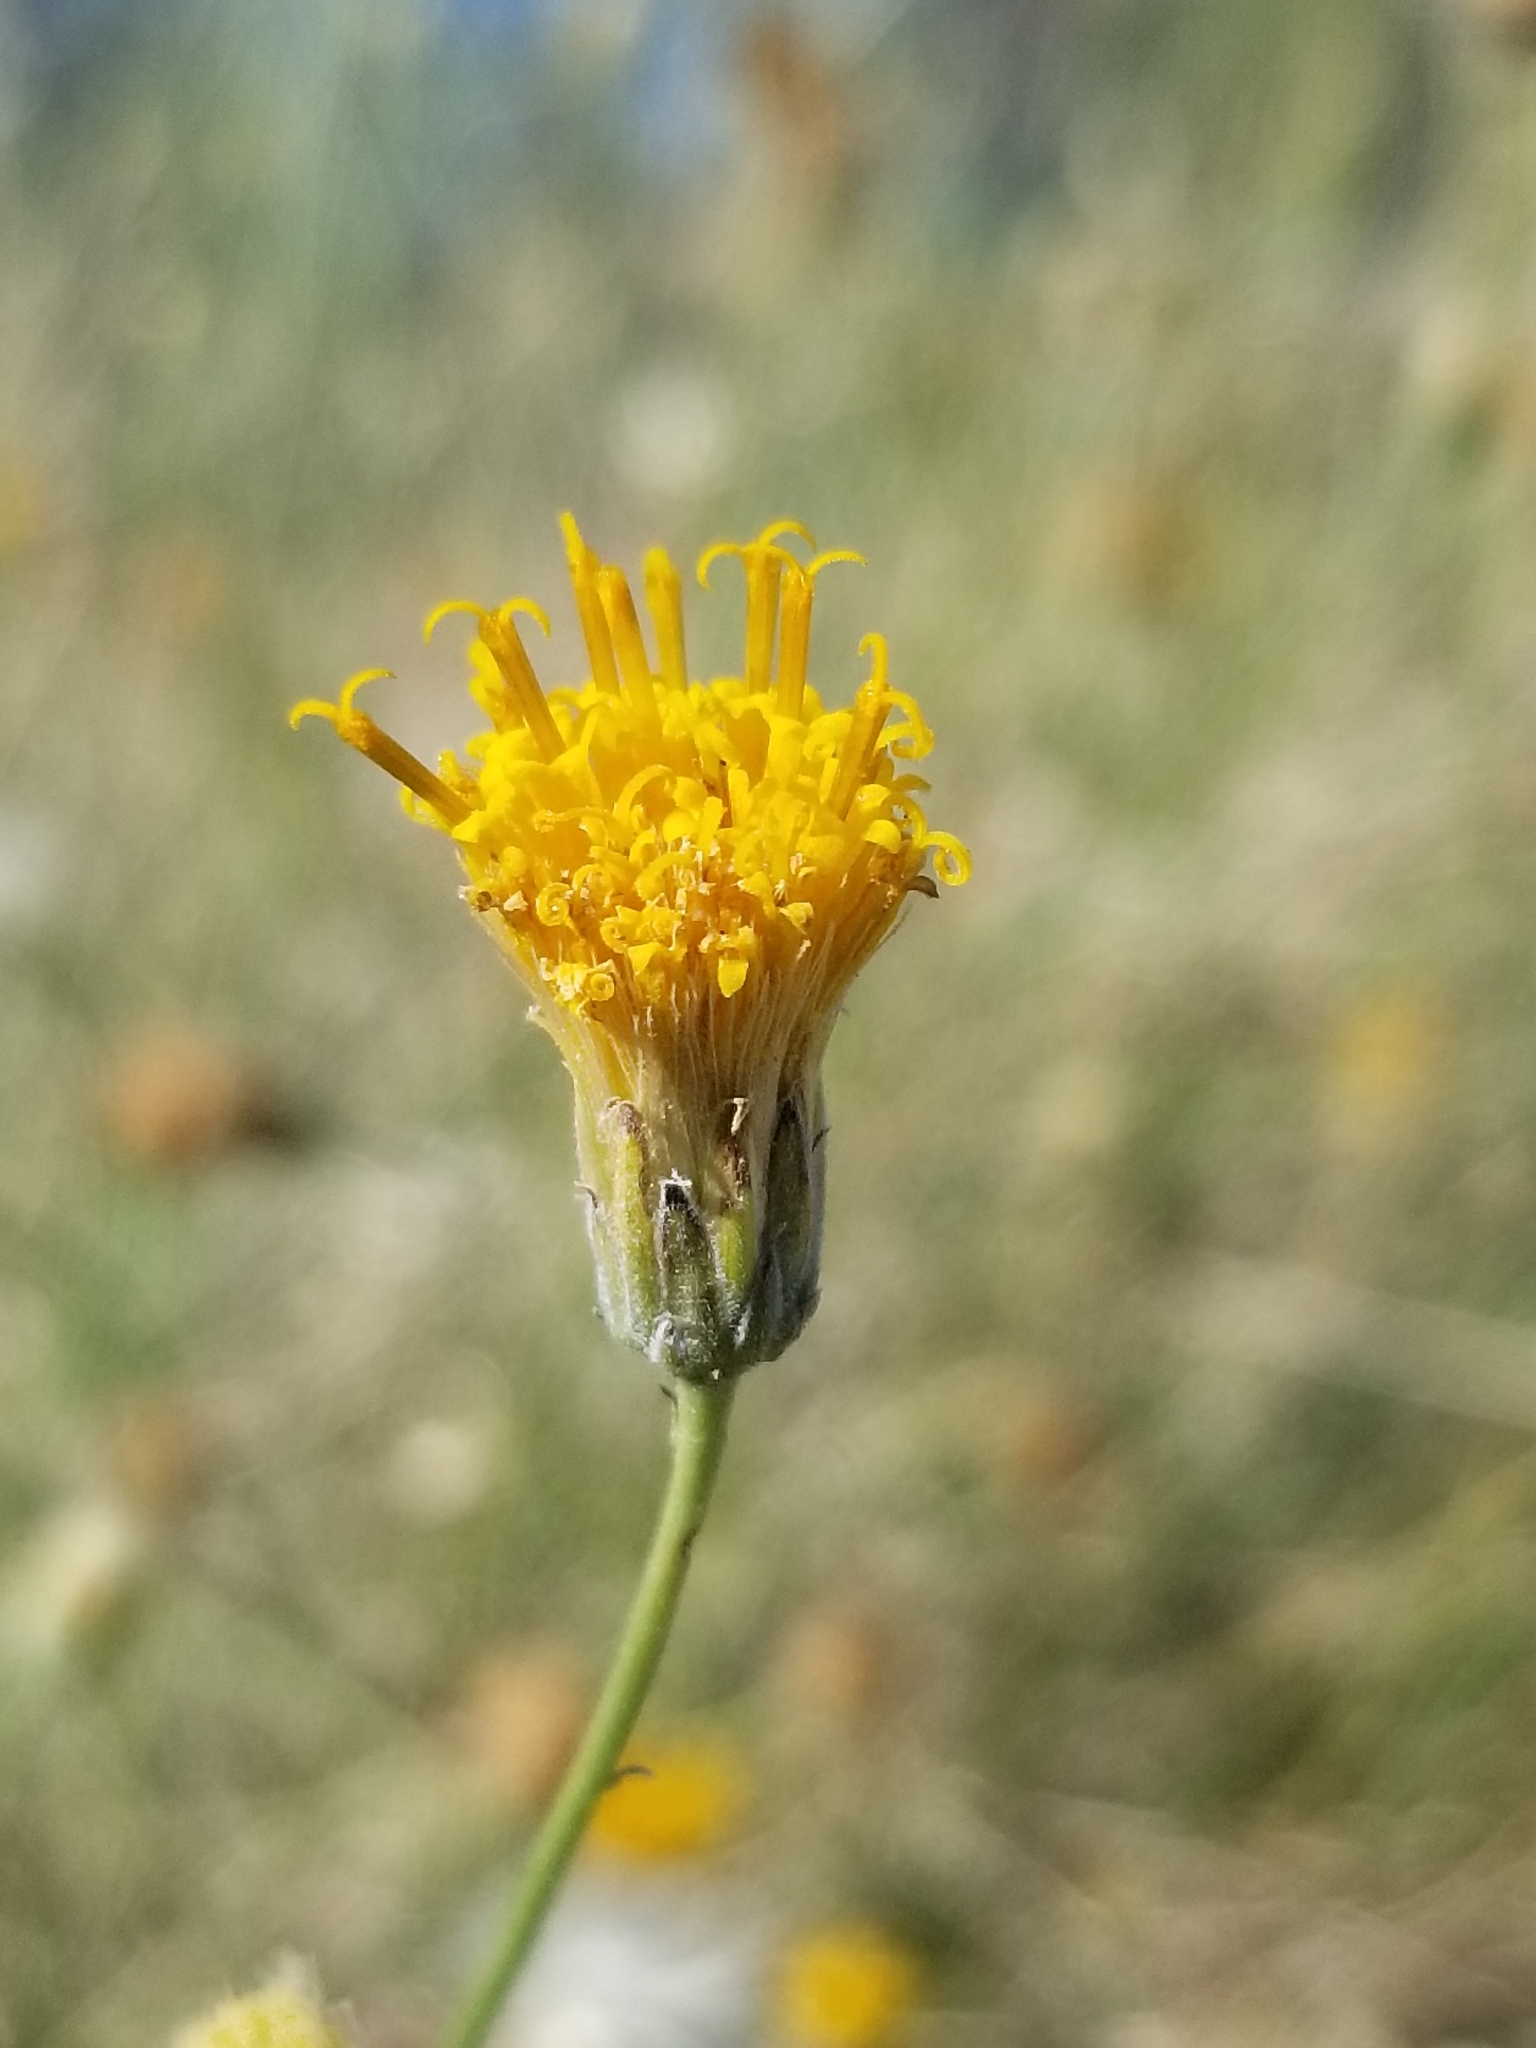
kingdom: Plantae
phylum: Tracheophyta
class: Magnoliopsida
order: Asterales
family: Asteraceae
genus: Bebbia
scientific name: Bebbia juncea
